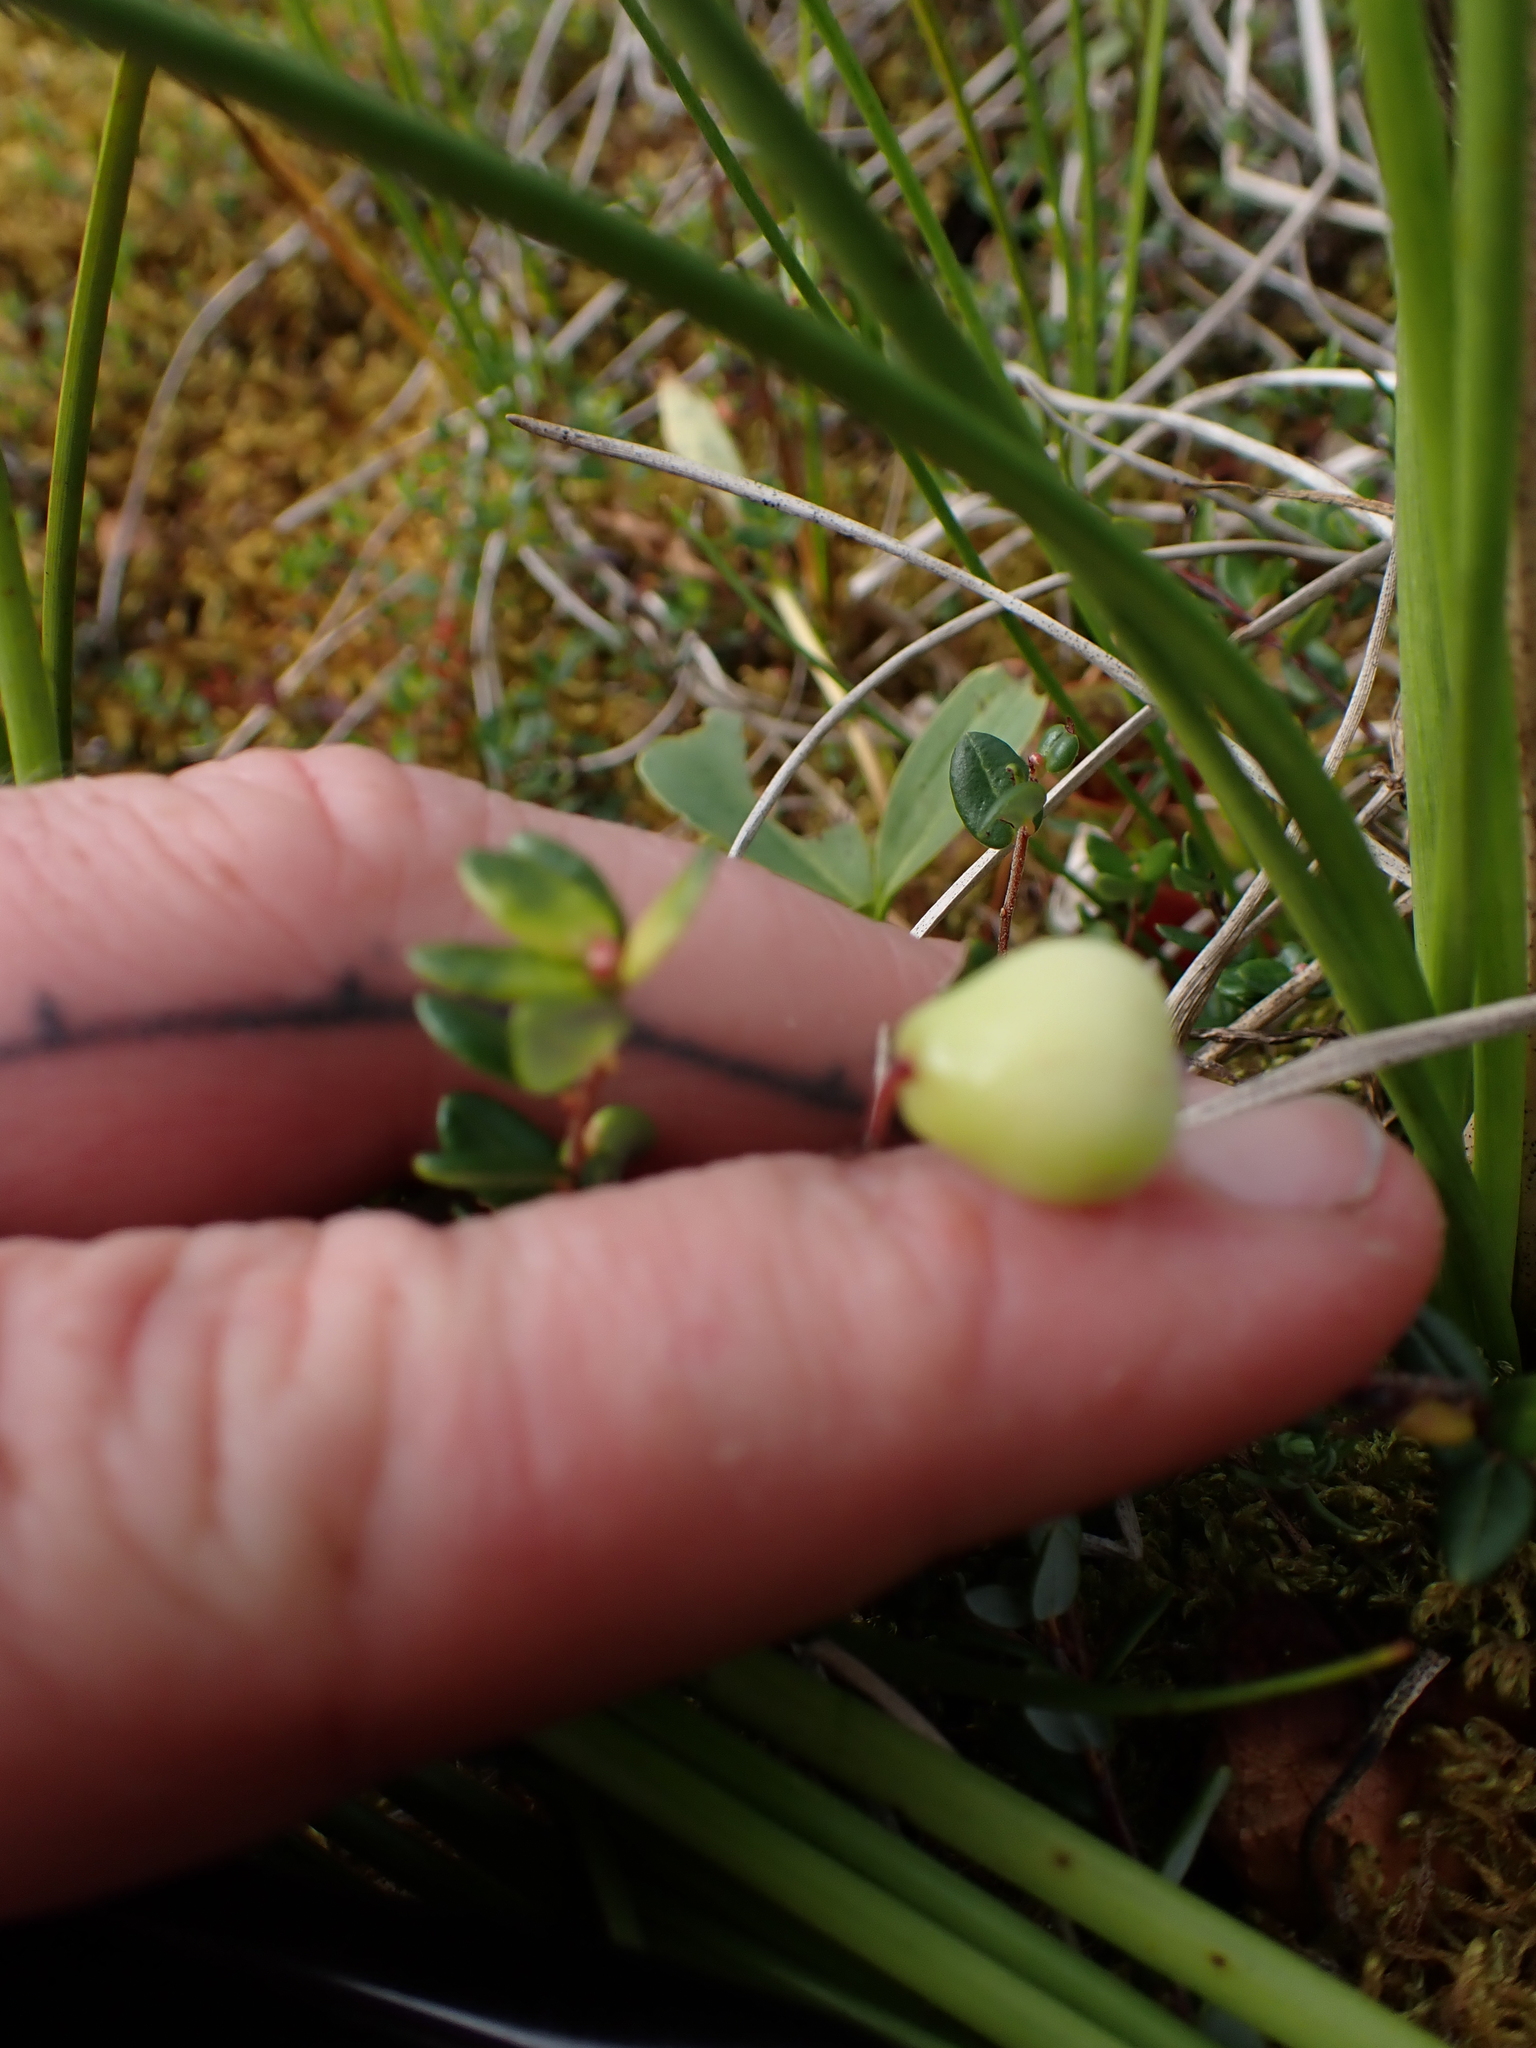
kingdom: Plantae
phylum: Tracheophyta
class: Magnoliopsida
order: Ericales
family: Ericaceae
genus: Vaccinium
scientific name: Vaccinium oxycoccos
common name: Cranberry
